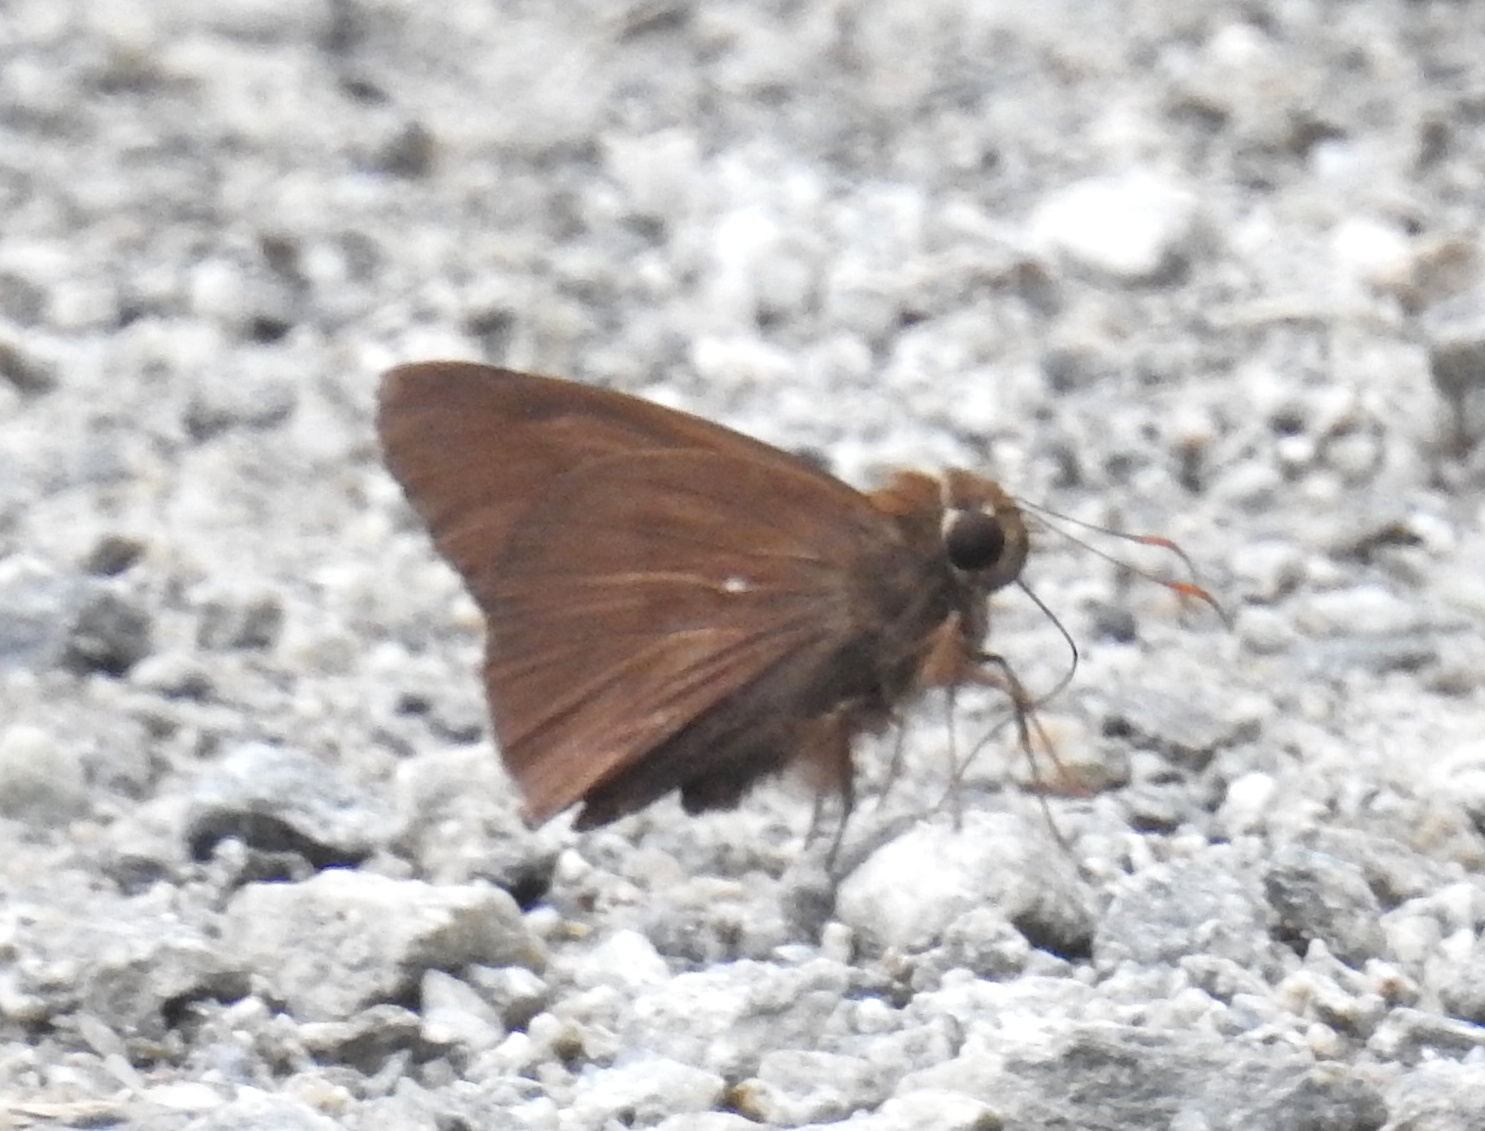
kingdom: Animalia
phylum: Arthropoda
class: Insecta
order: Lepidoptera
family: Hesperiidae
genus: Hasora
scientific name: Hasora anura
